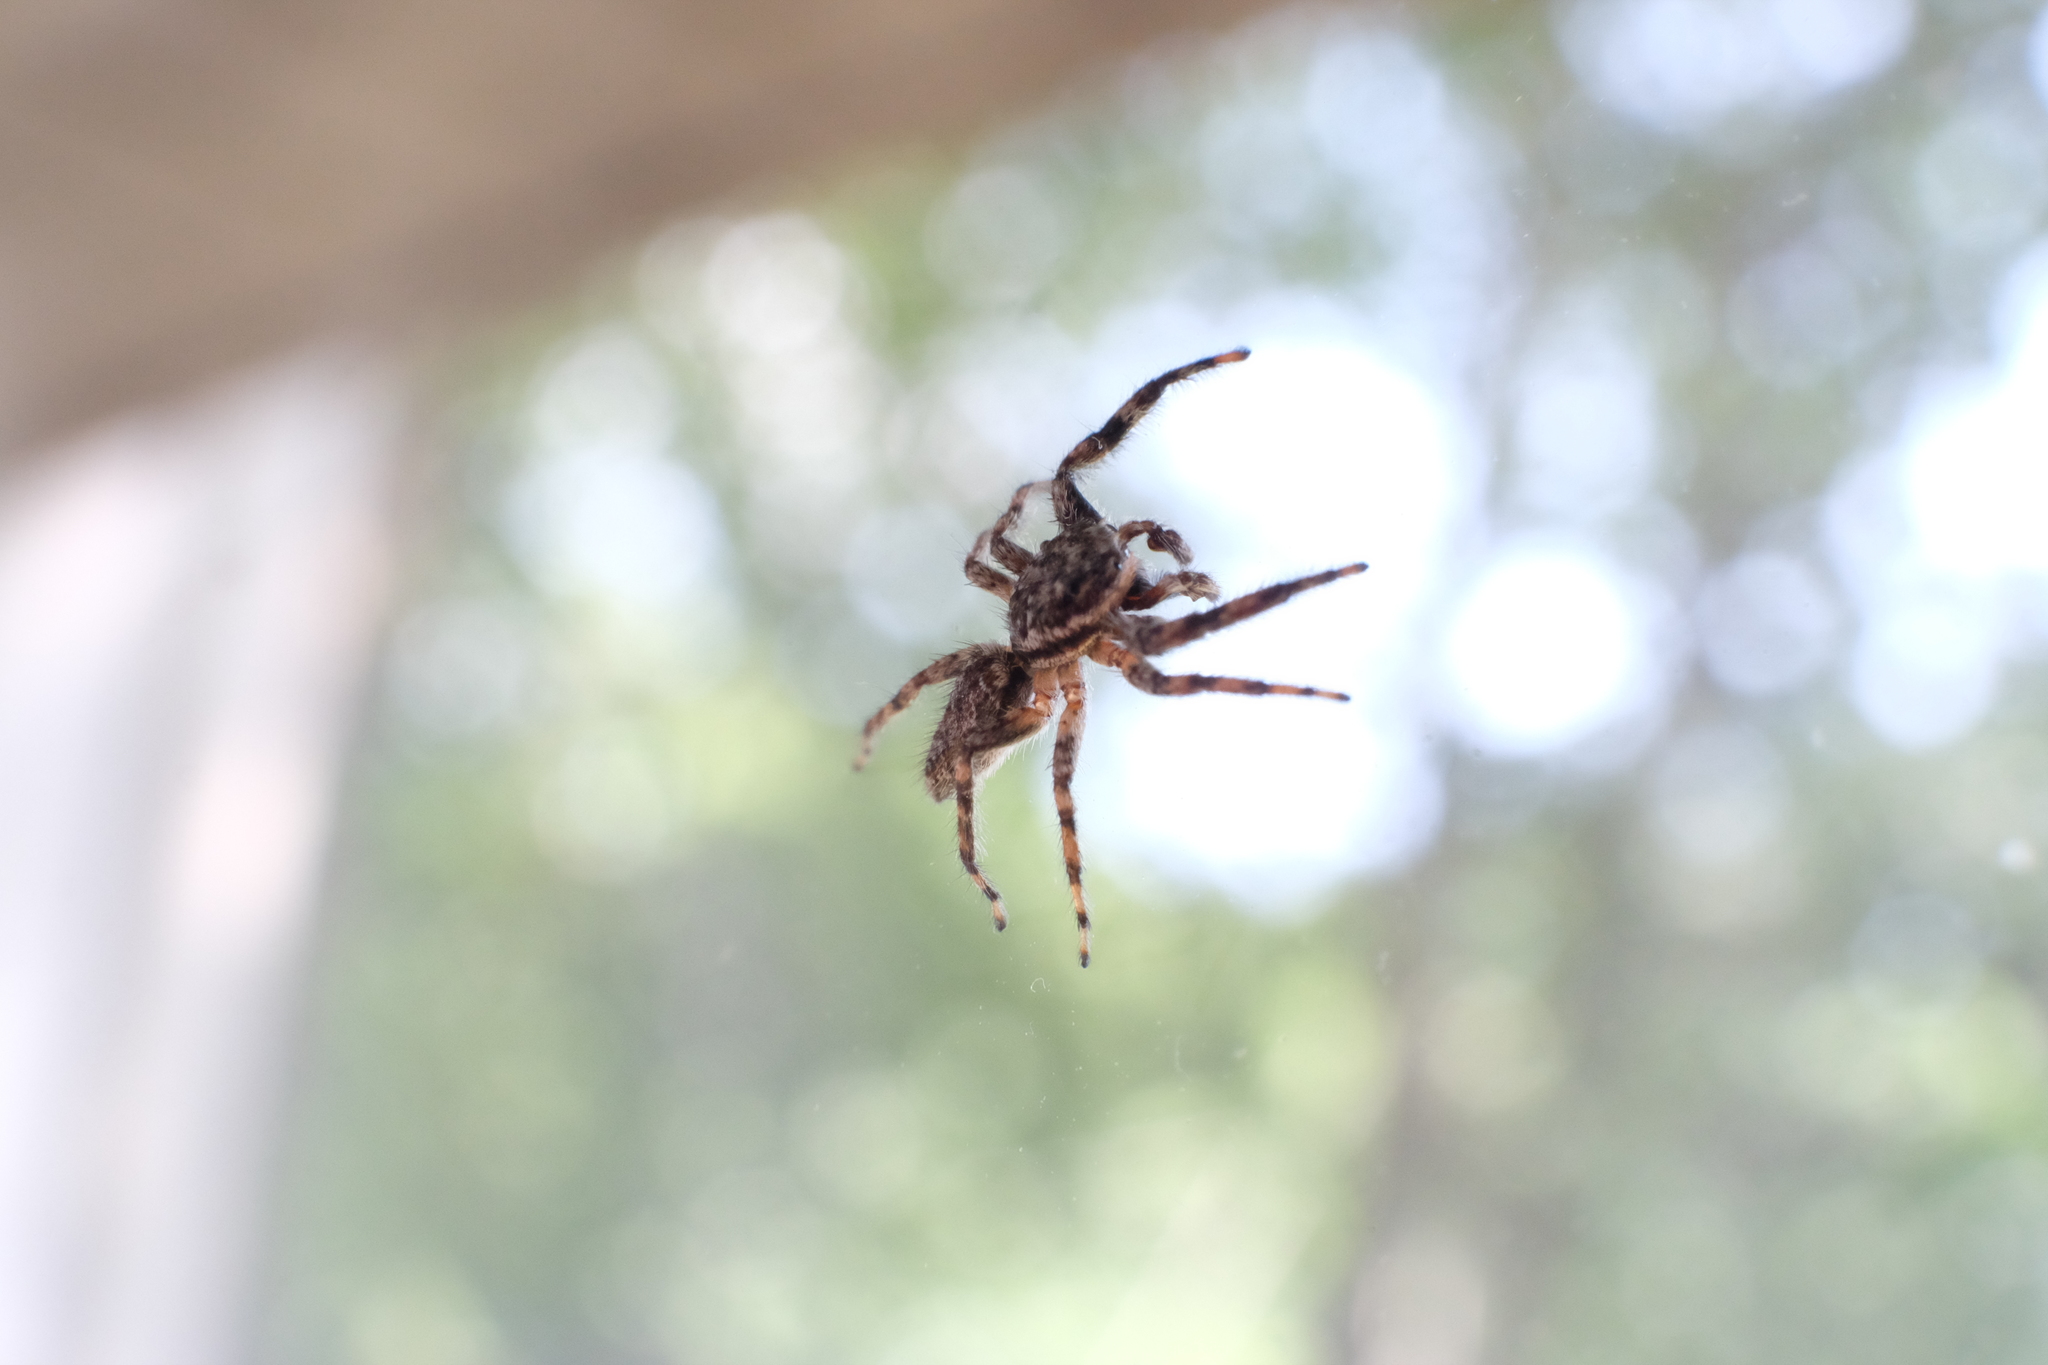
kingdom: Animalia
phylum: Arthropoda
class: Arachnida
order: Araneae
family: Salticidae
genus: Platycryptus
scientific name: Platycryptus undatus
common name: Tan jumping spider
